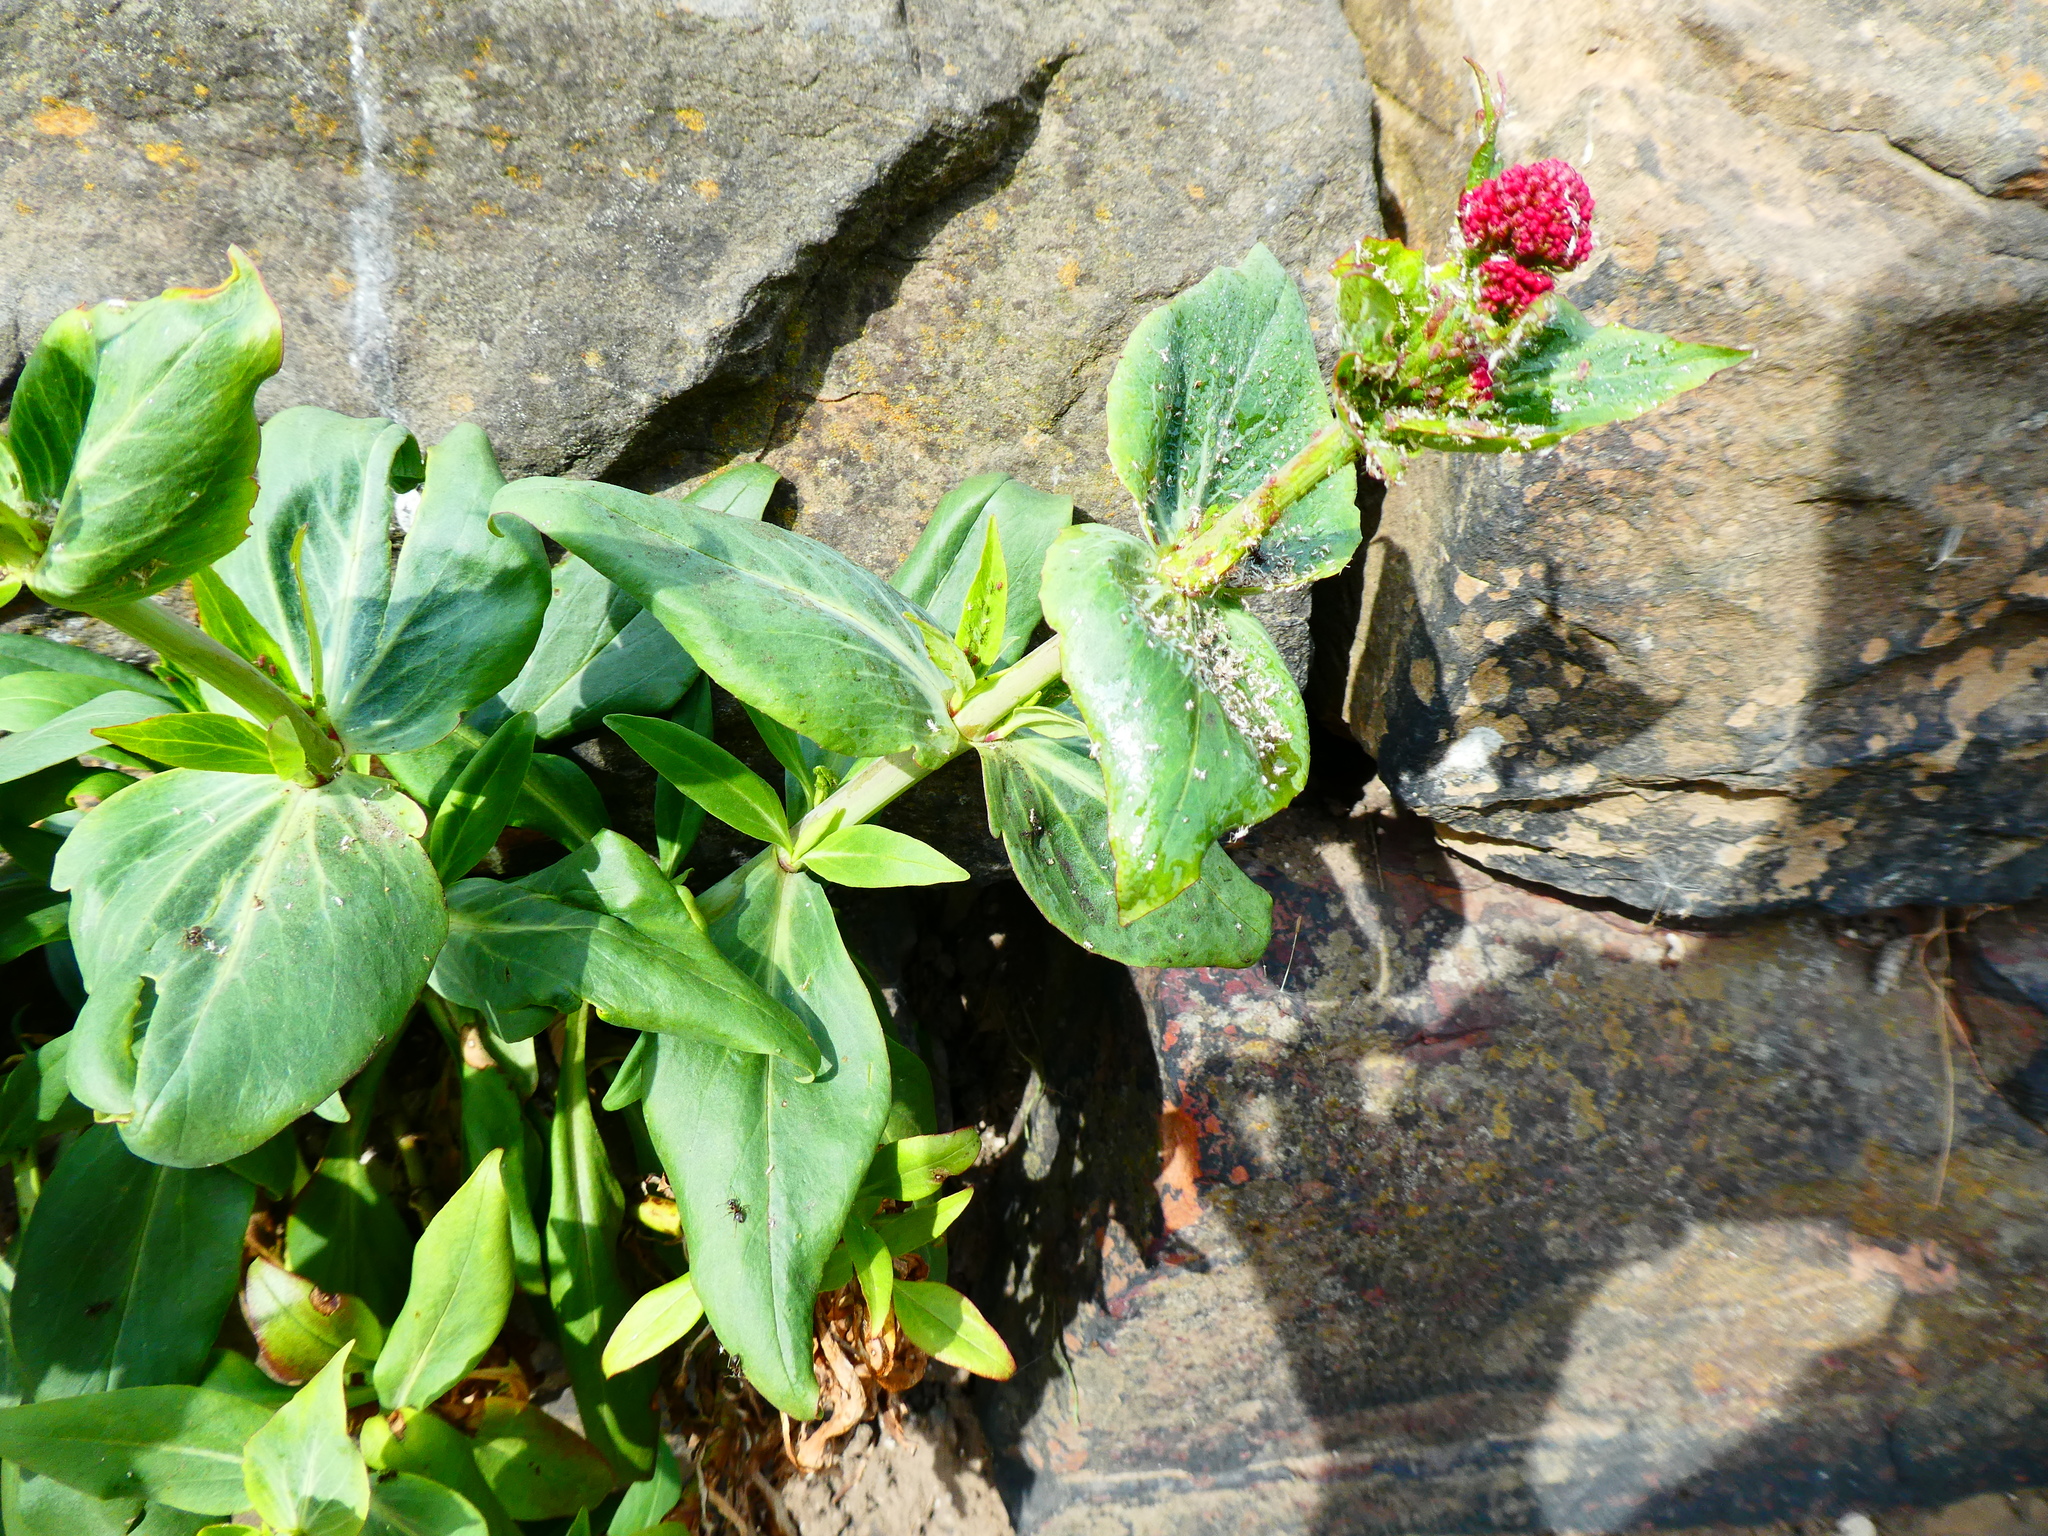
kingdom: Plantae
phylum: Tracheophyta
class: Magnoliopsida
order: Dipsacales
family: Caprifoliaceae
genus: Centranthus
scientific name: Centranthus ruber
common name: Red valerian
